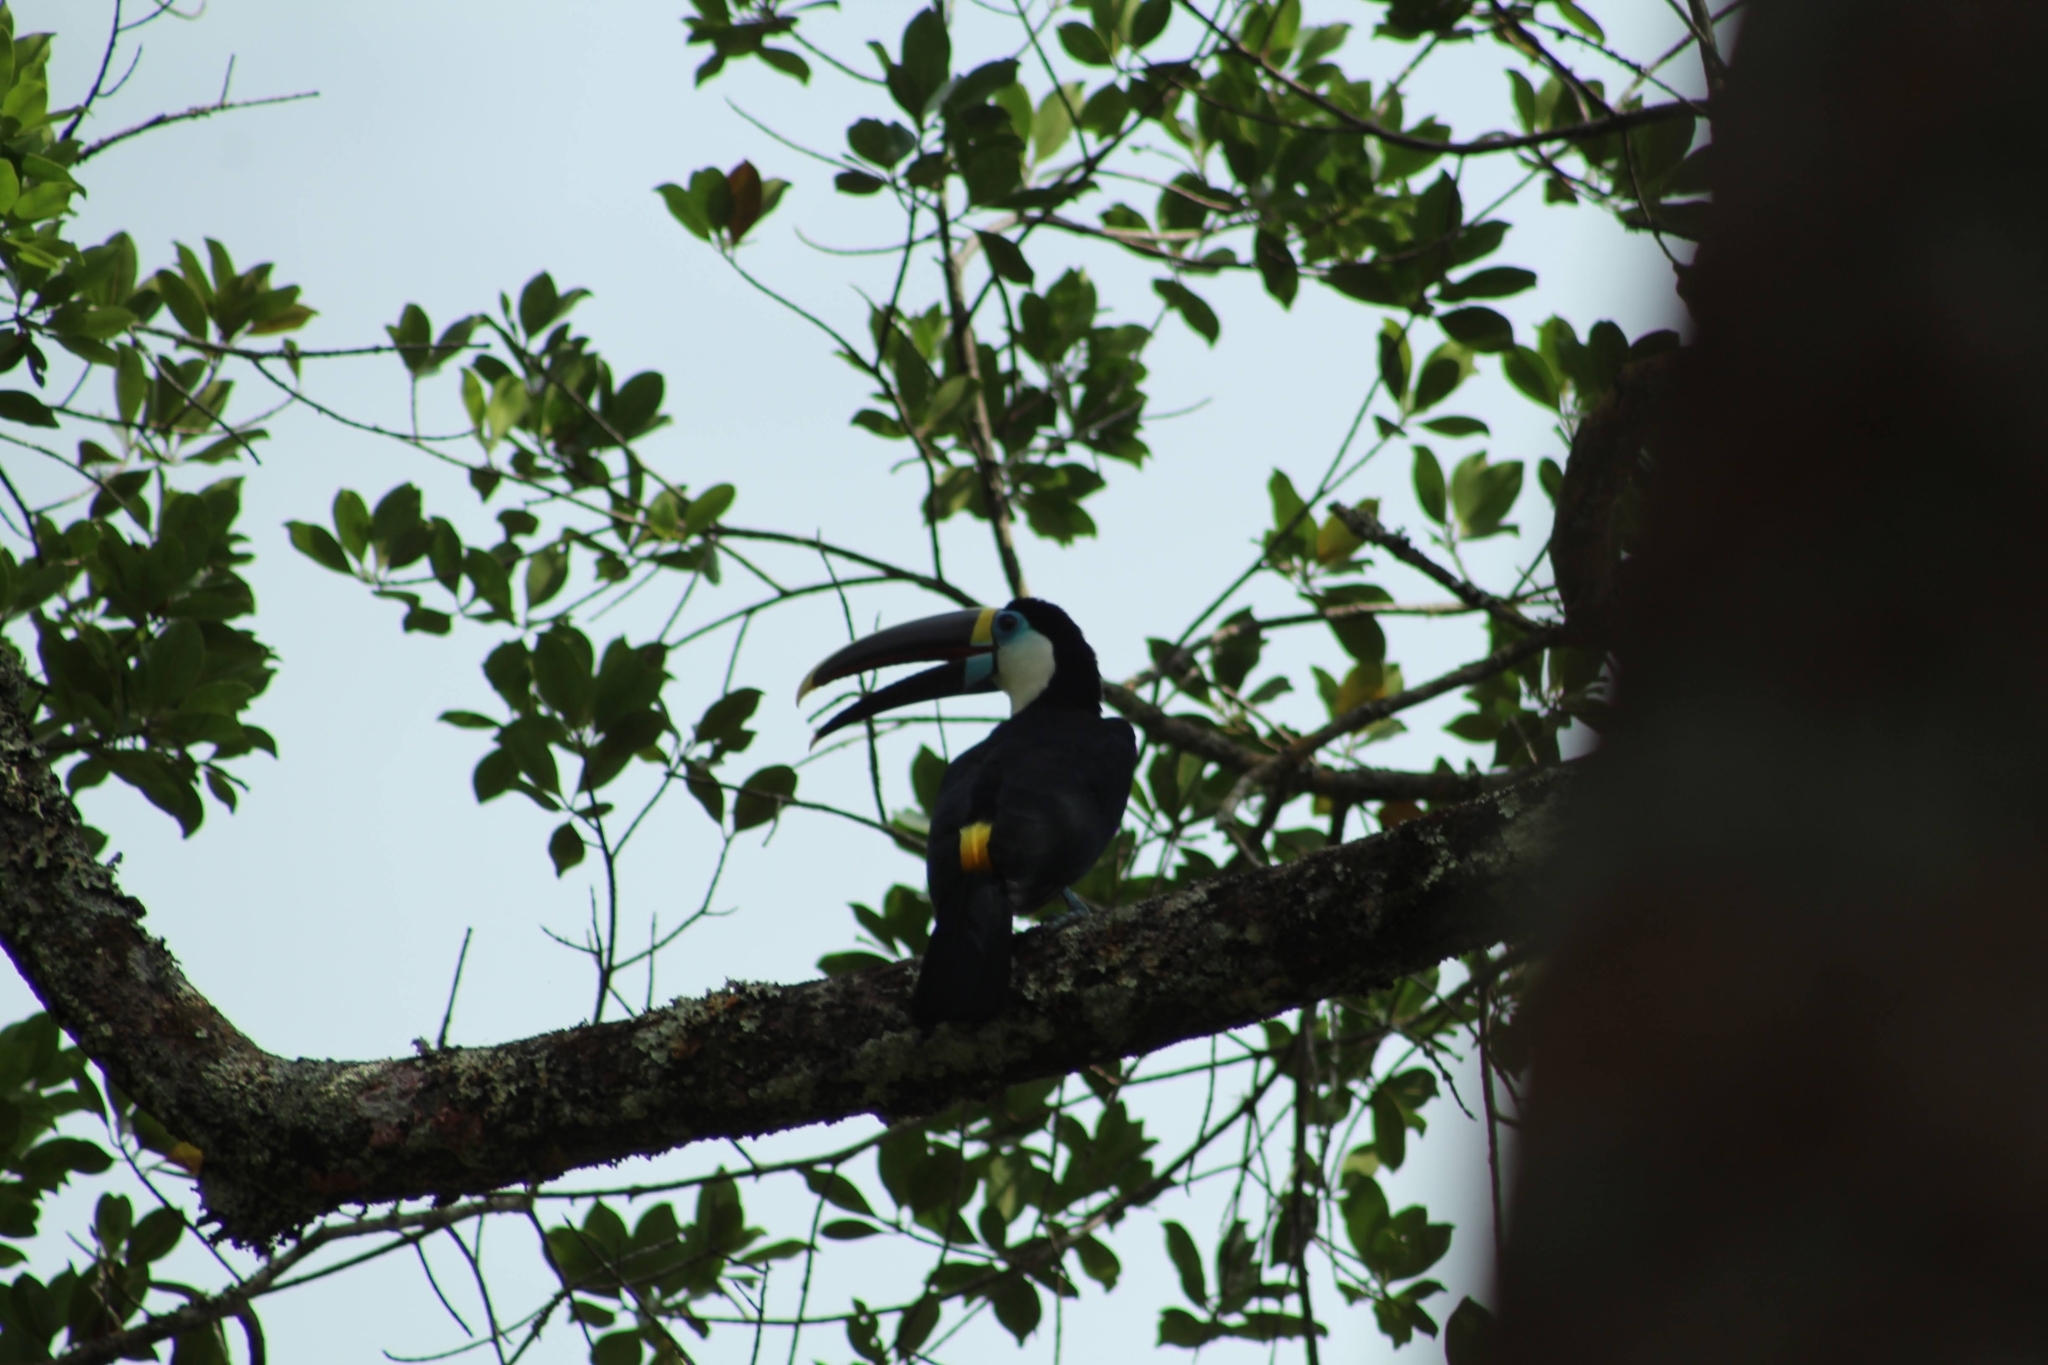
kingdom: Animalia
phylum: Chordata
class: Aves
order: Piciformes
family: Ramphastidae
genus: Ramphastos
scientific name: Ramphastos tucanus
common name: White-throated toucan
